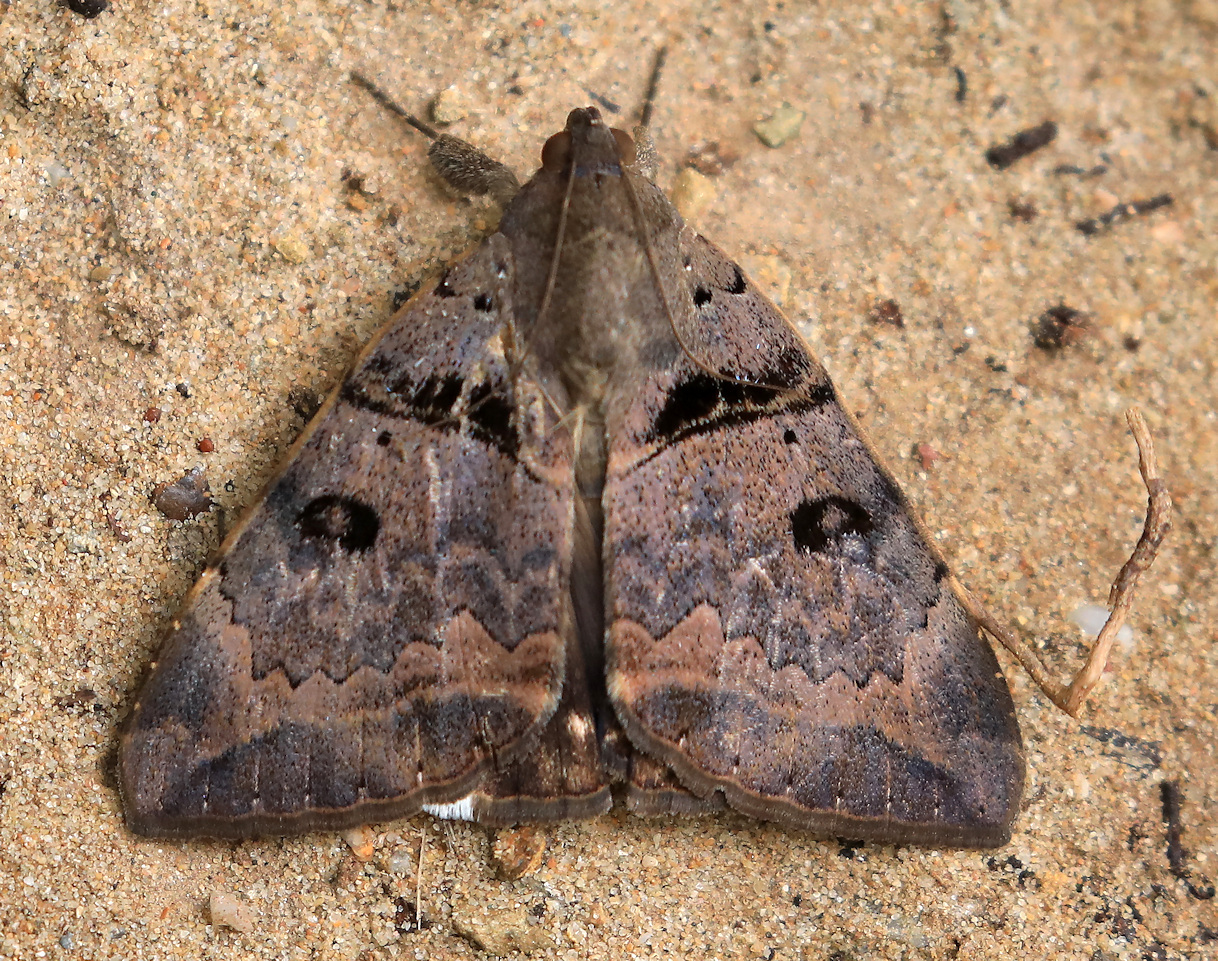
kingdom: Animalia
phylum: Arthropoda
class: Insecta
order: Lepidoptera
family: Erebidae
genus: Achaea
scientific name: Achaea lienardi
